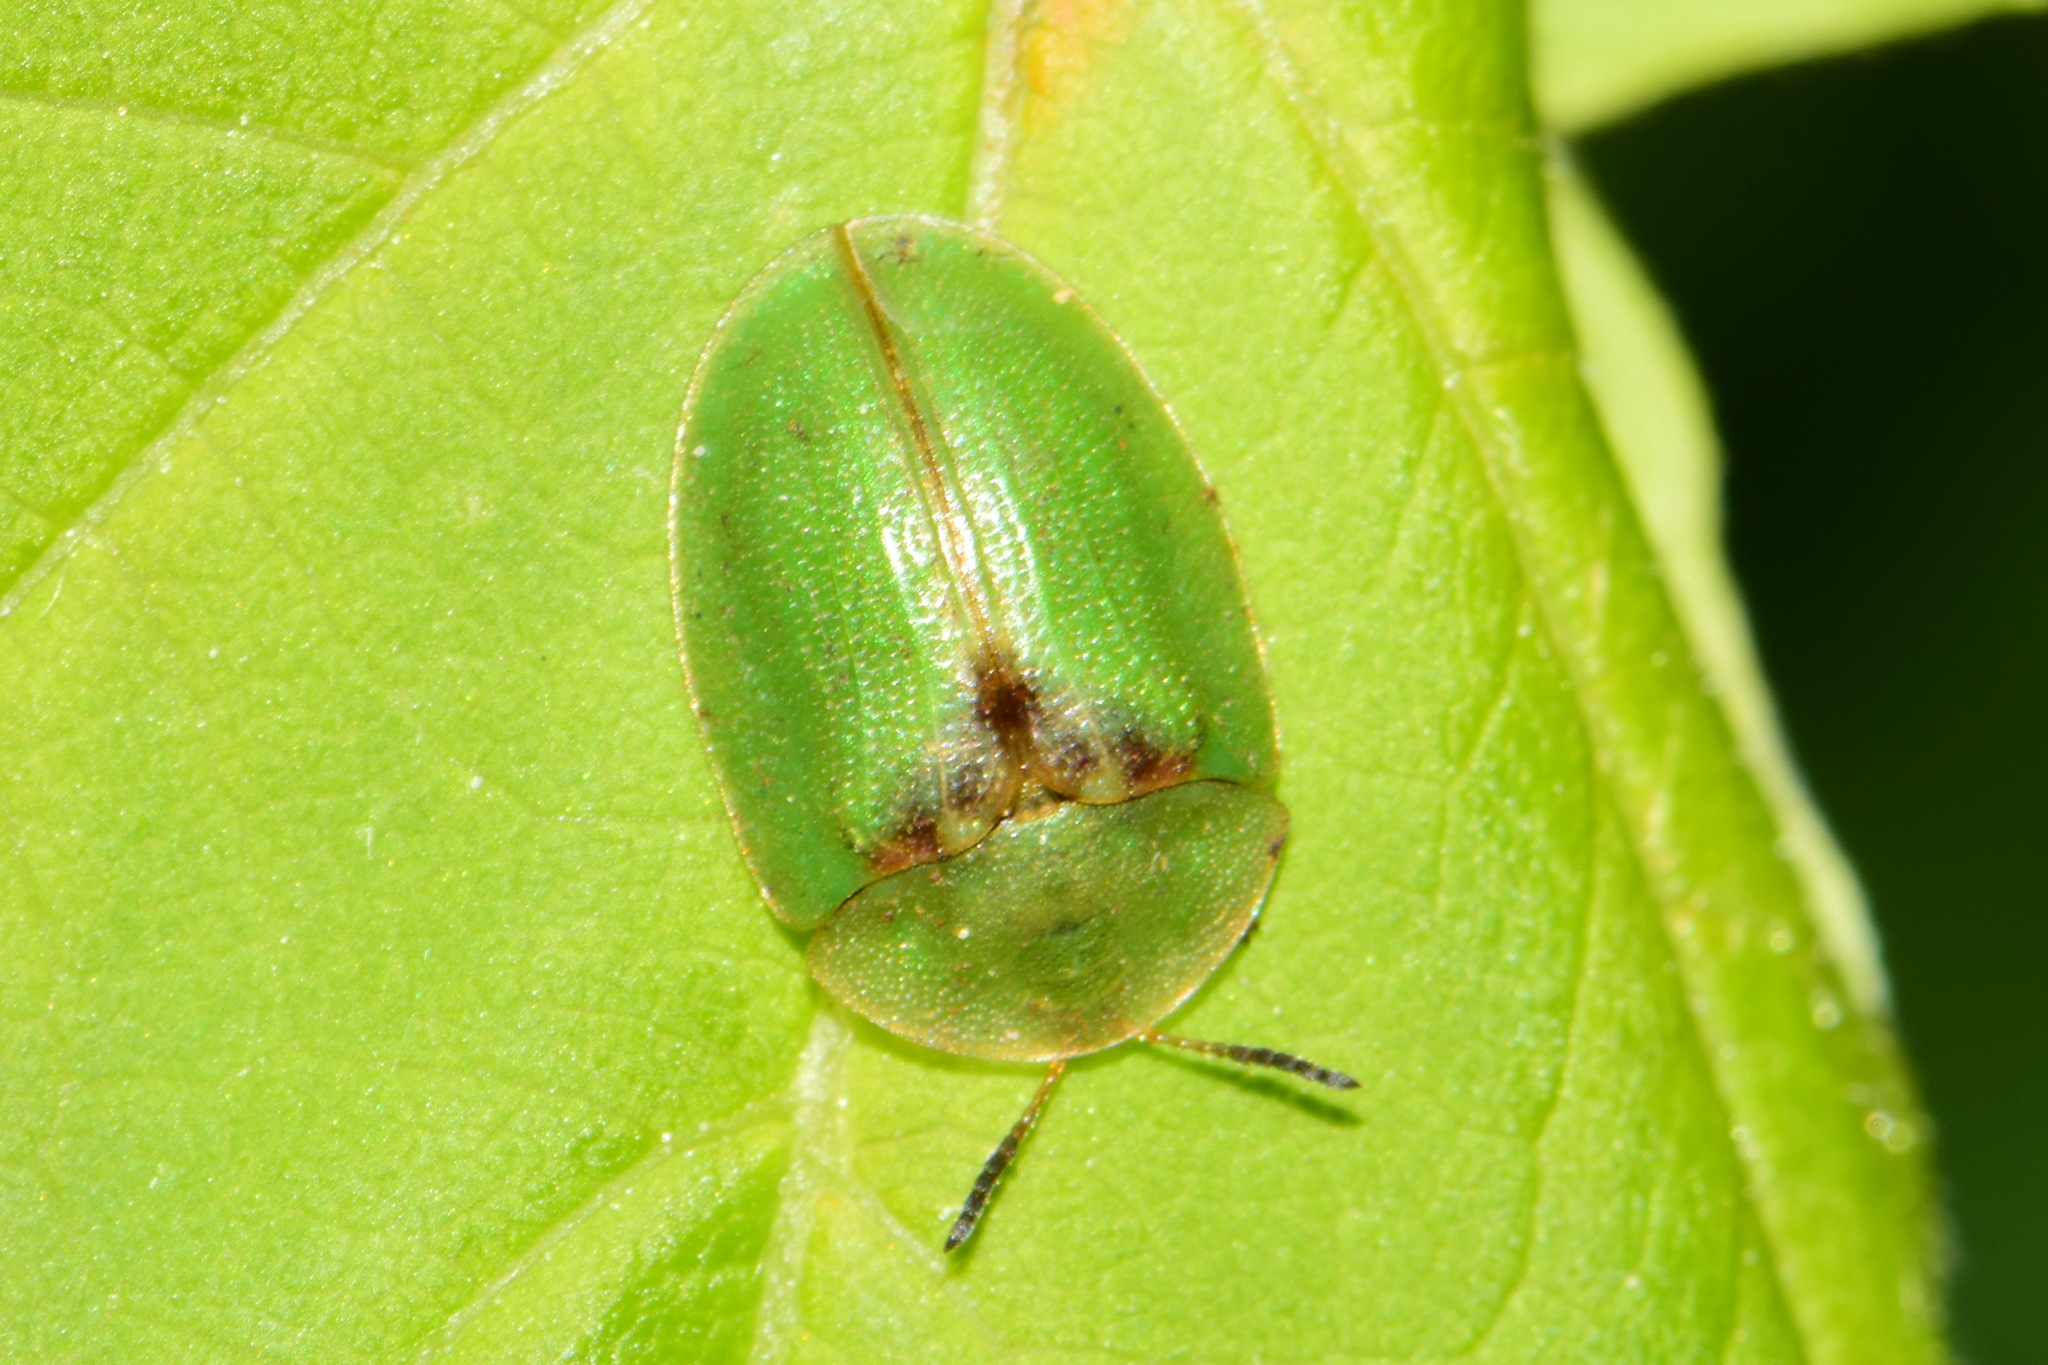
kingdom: Animalia
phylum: Arthropoda
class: Insecta
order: Coleoptera
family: Chrysomelidae
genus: Cassida
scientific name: Cassida sanguinosa
